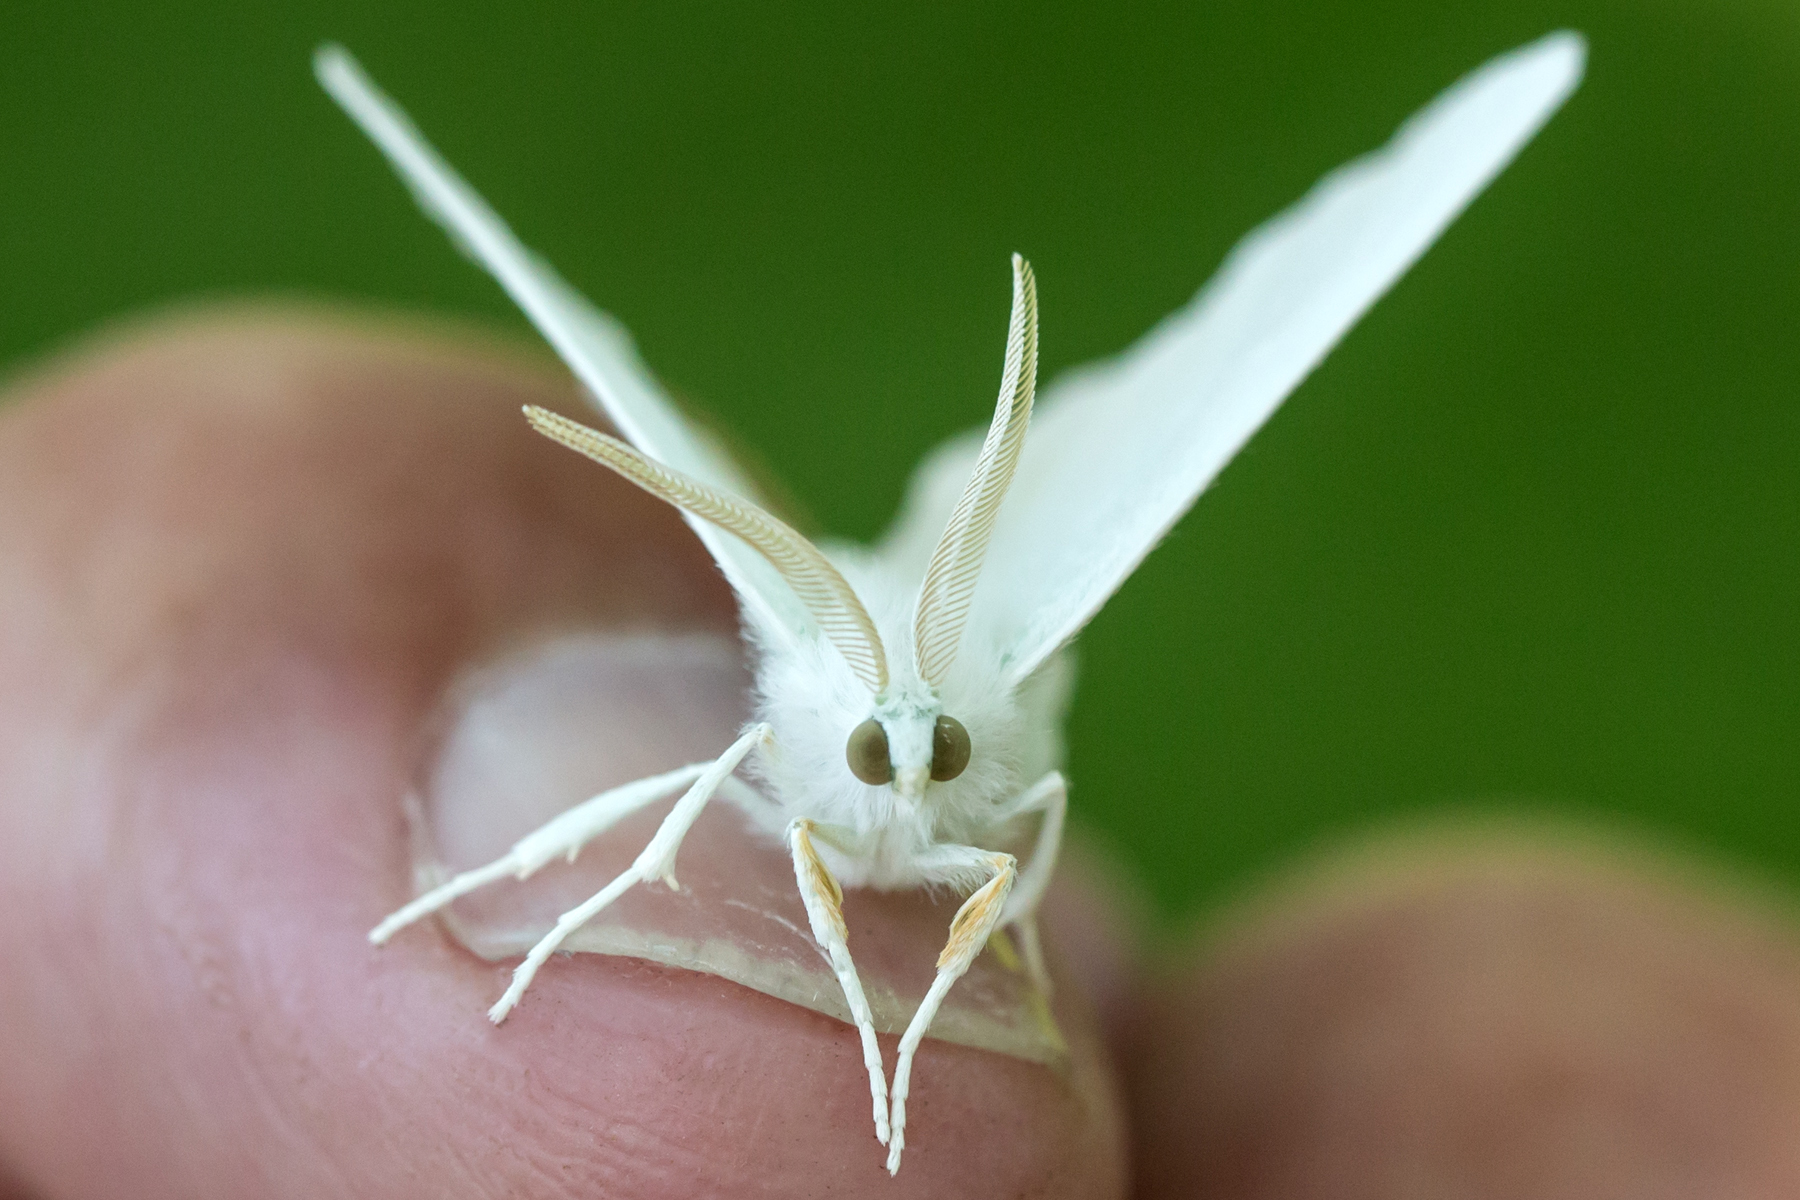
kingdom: Animalia
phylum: Arthropoda
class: Insecta
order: Lepidoptera
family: Geometridae
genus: Ennomos
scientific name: Ennomos subsignaria
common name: Elm spanworm
